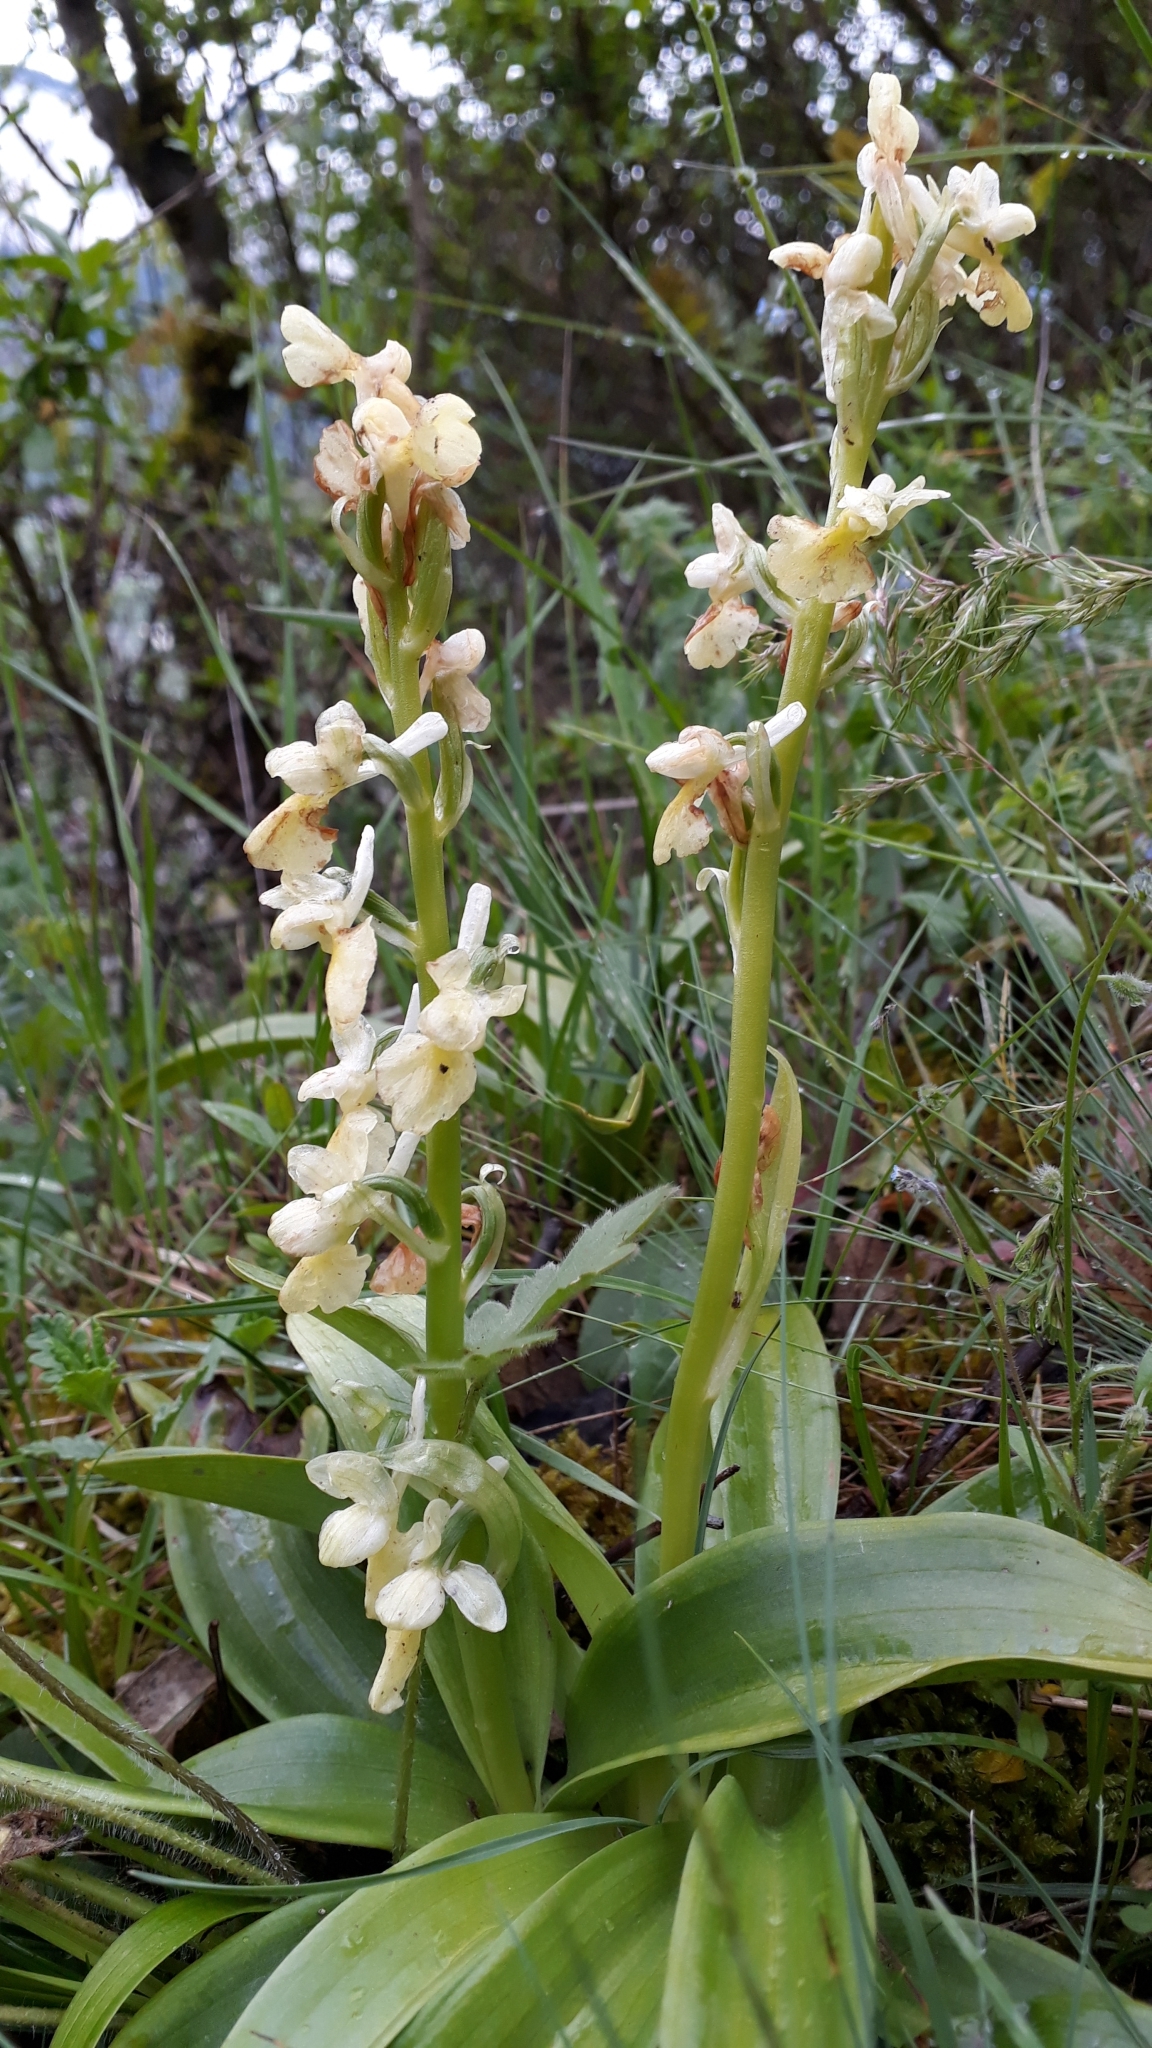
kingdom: Plantae
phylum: Tracheophyta
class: Liliopsida
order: Asparagales
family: Orchidaceae
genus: Orchis
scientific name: Orchis pallens
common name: Pale-flowered orchid
